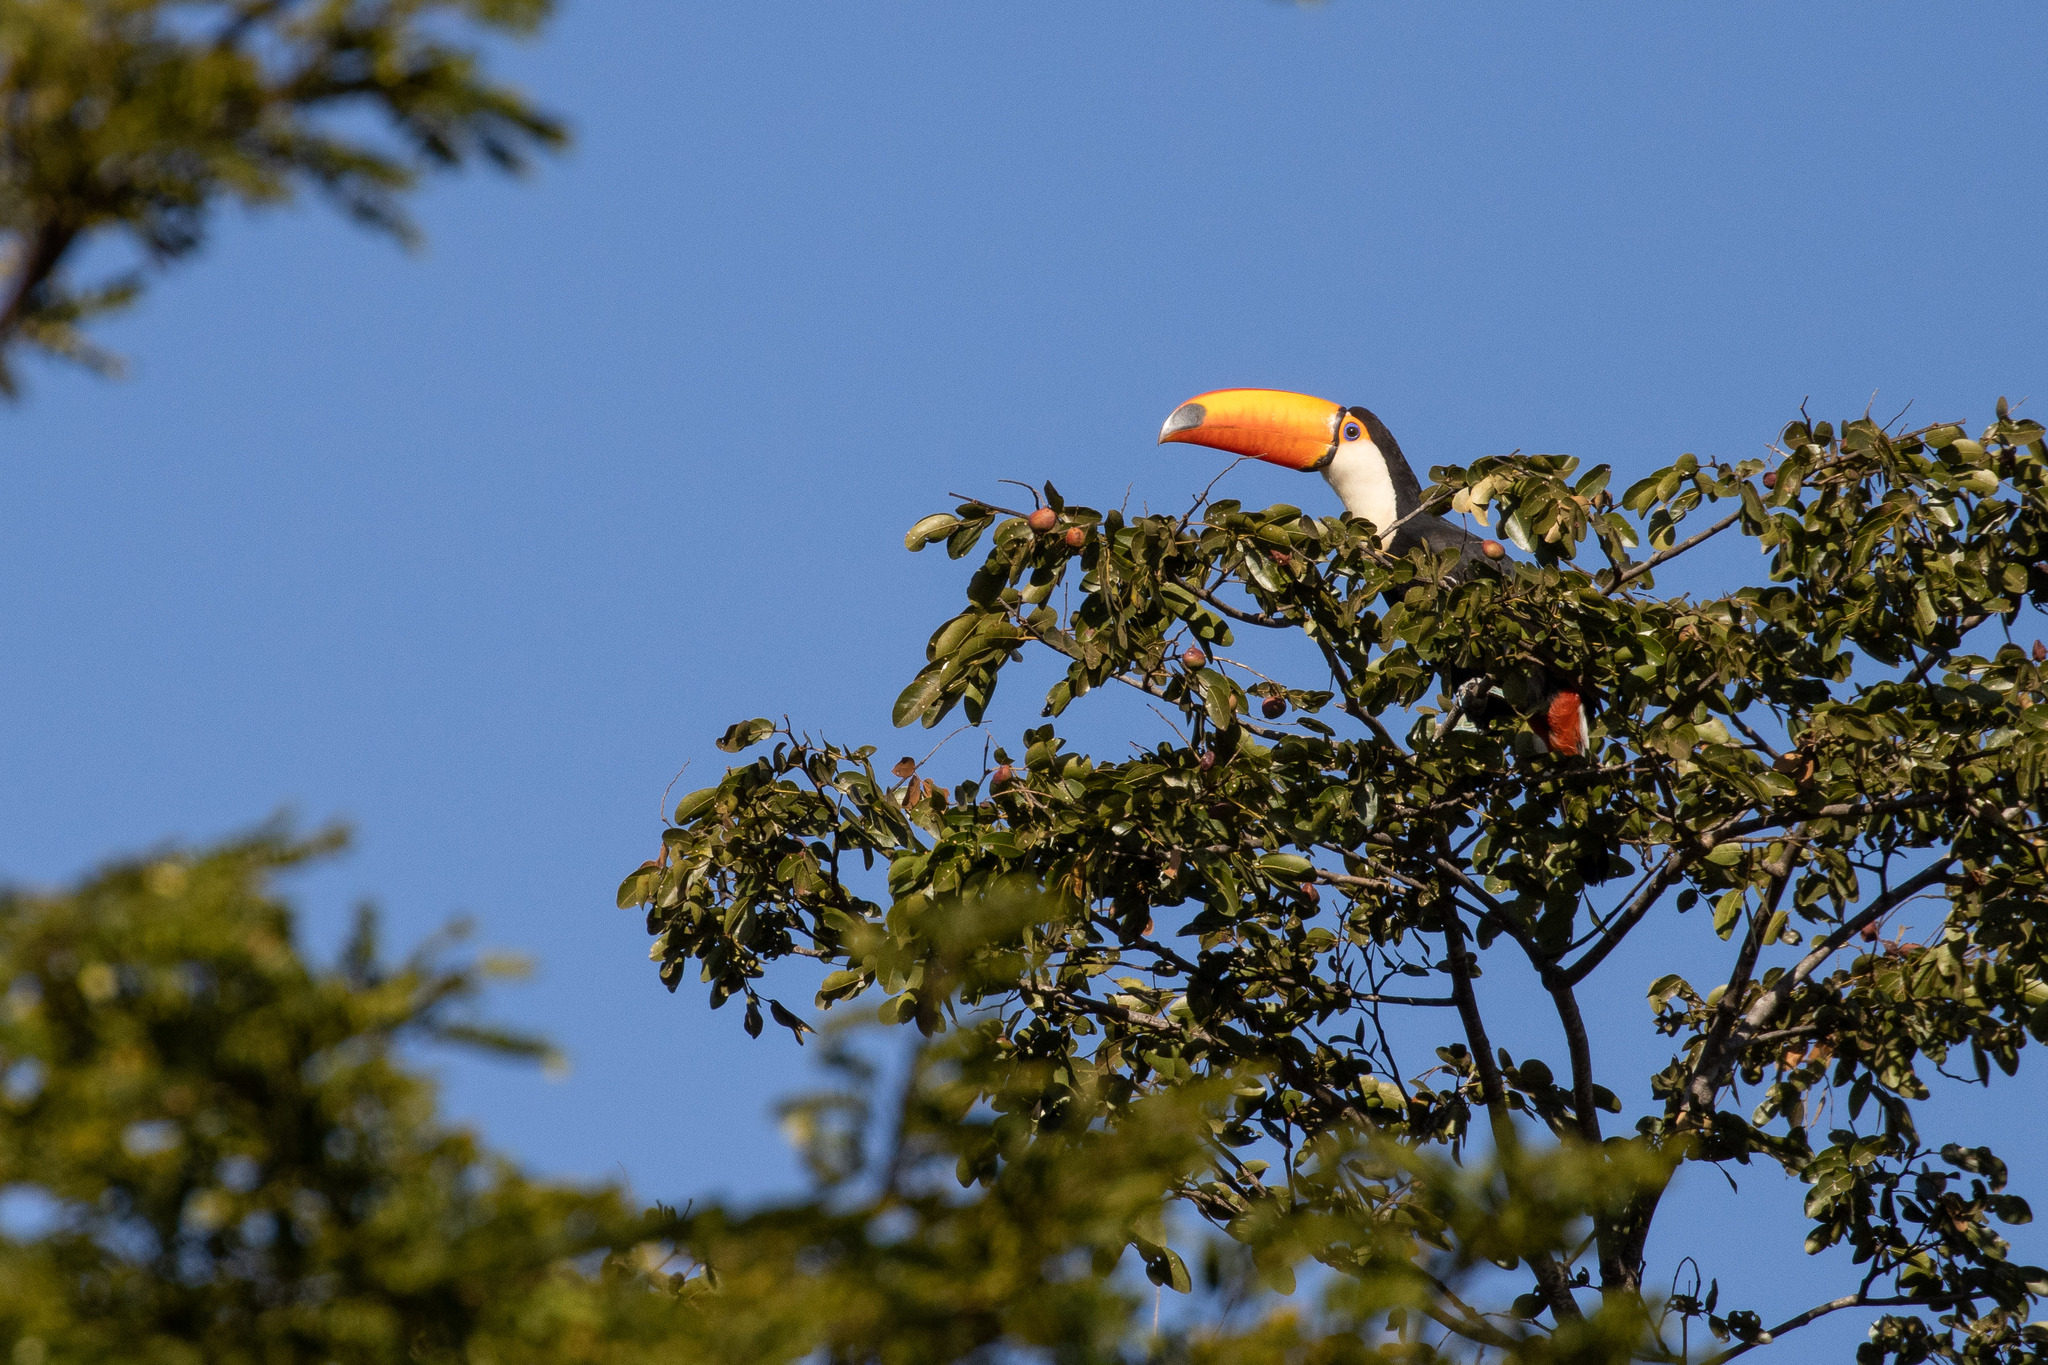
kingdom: Animalia
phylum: Chordata
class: Aves
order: Piciformes
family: Ramphastidae
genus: Ramphastos
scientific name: Ramphastos toco
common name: Toco toucan
